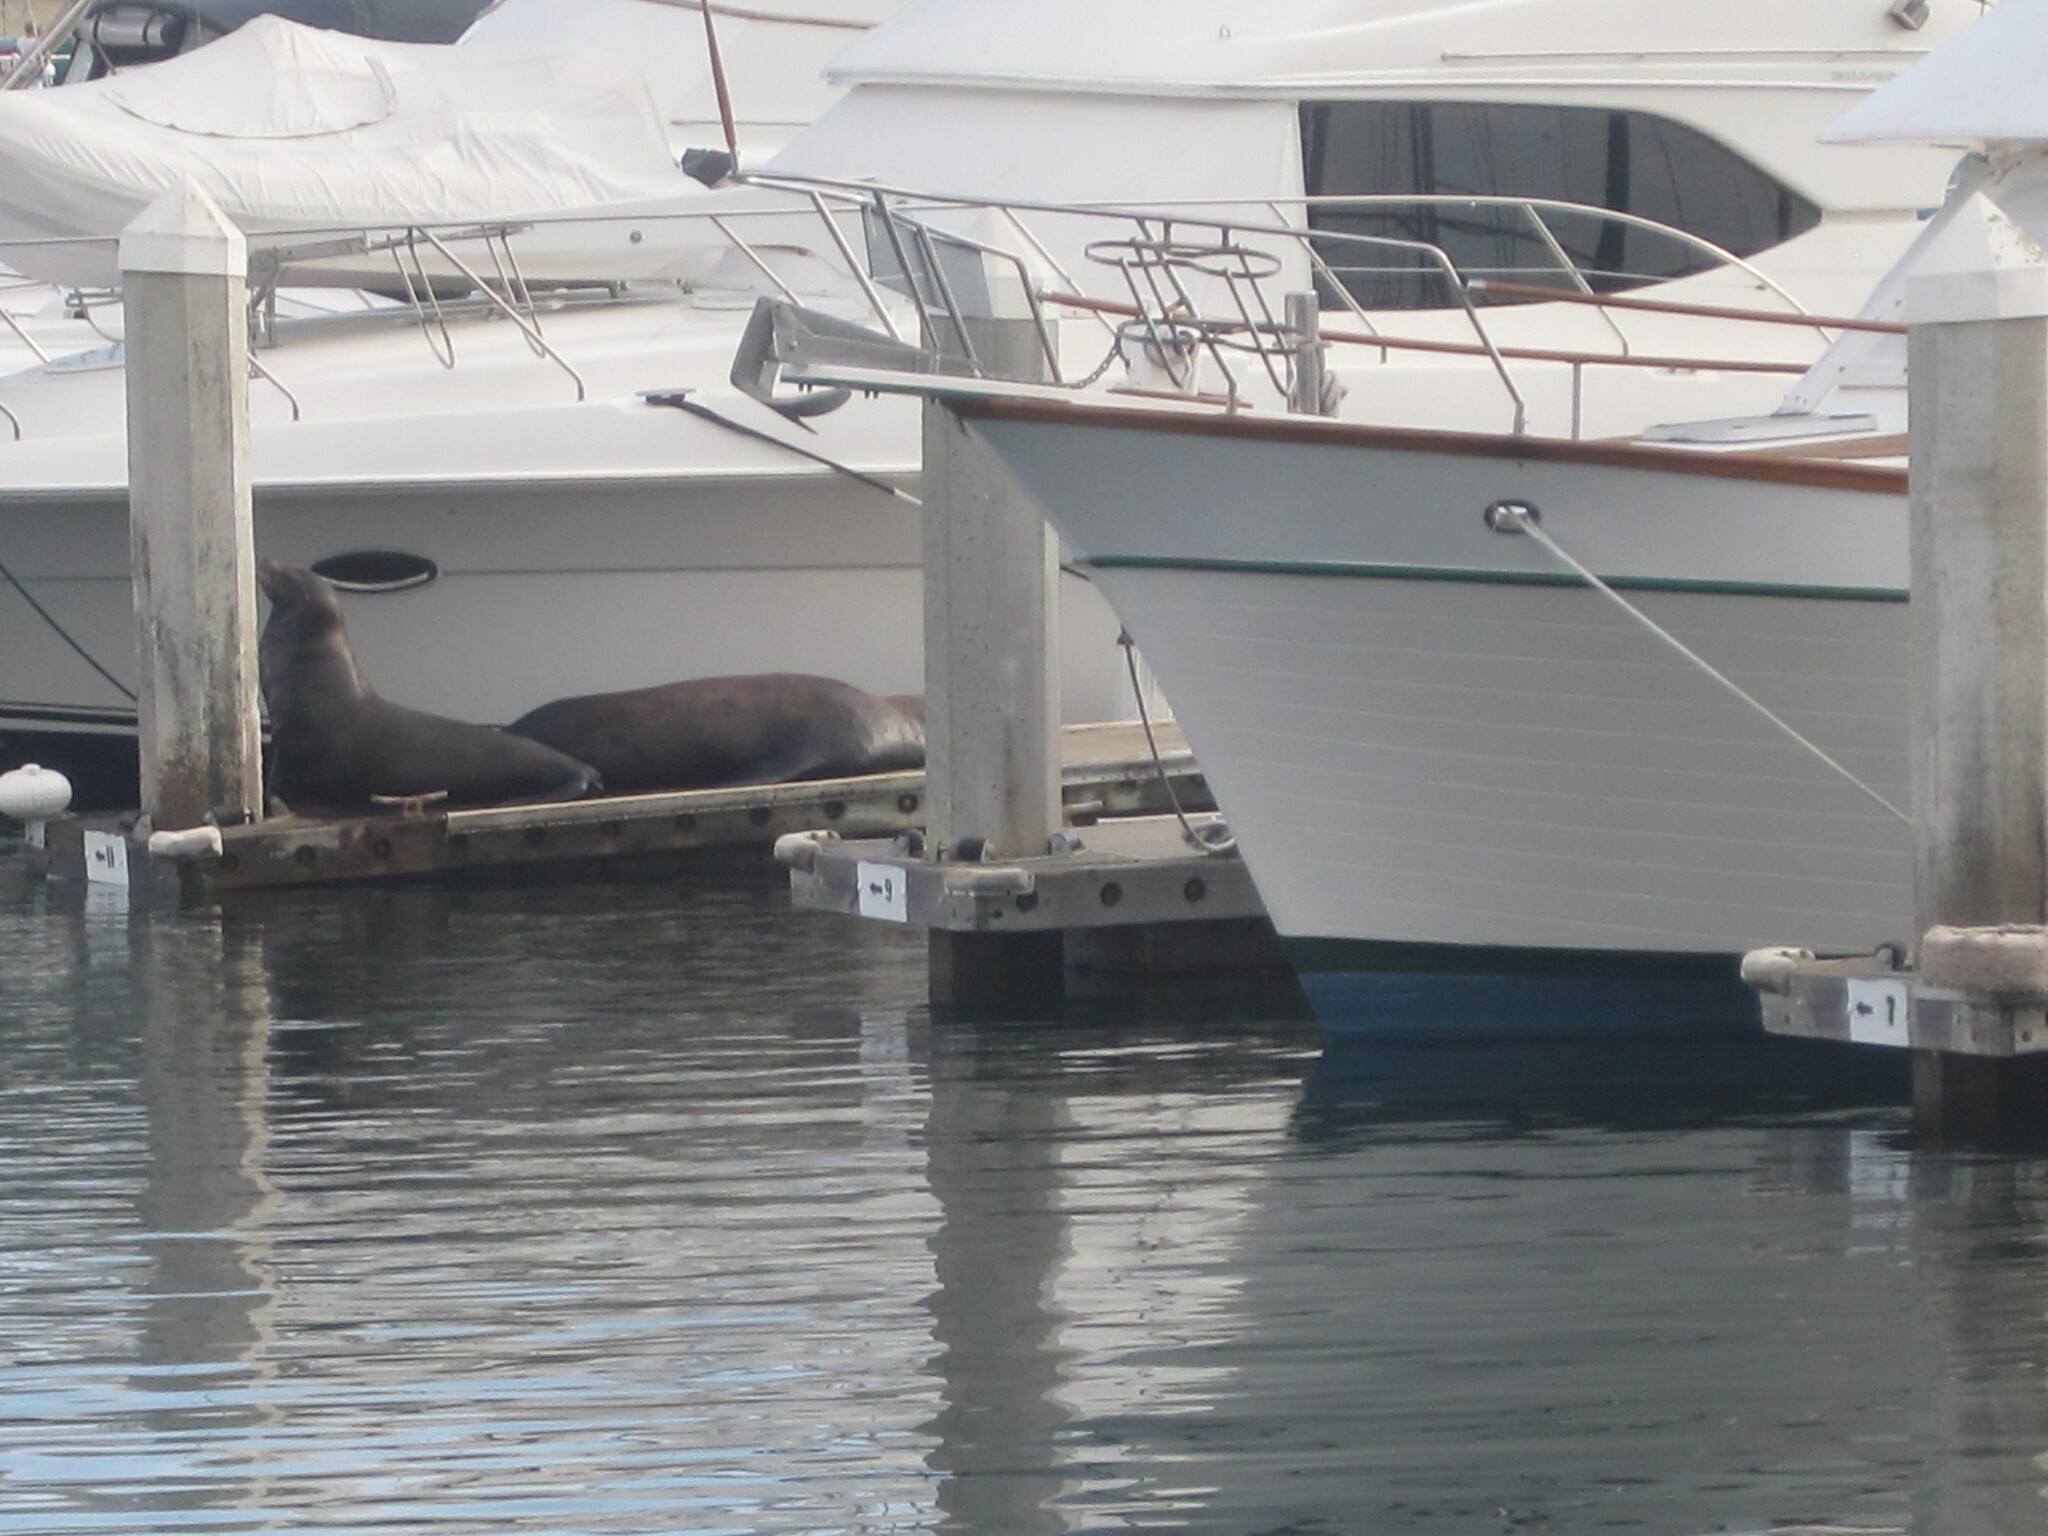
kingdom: Animalia
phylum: Chordata
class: Mammalia
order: Carnivora
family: Otariidae
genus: Zalophus
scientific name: Zalophus californianus
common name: California sea lion
